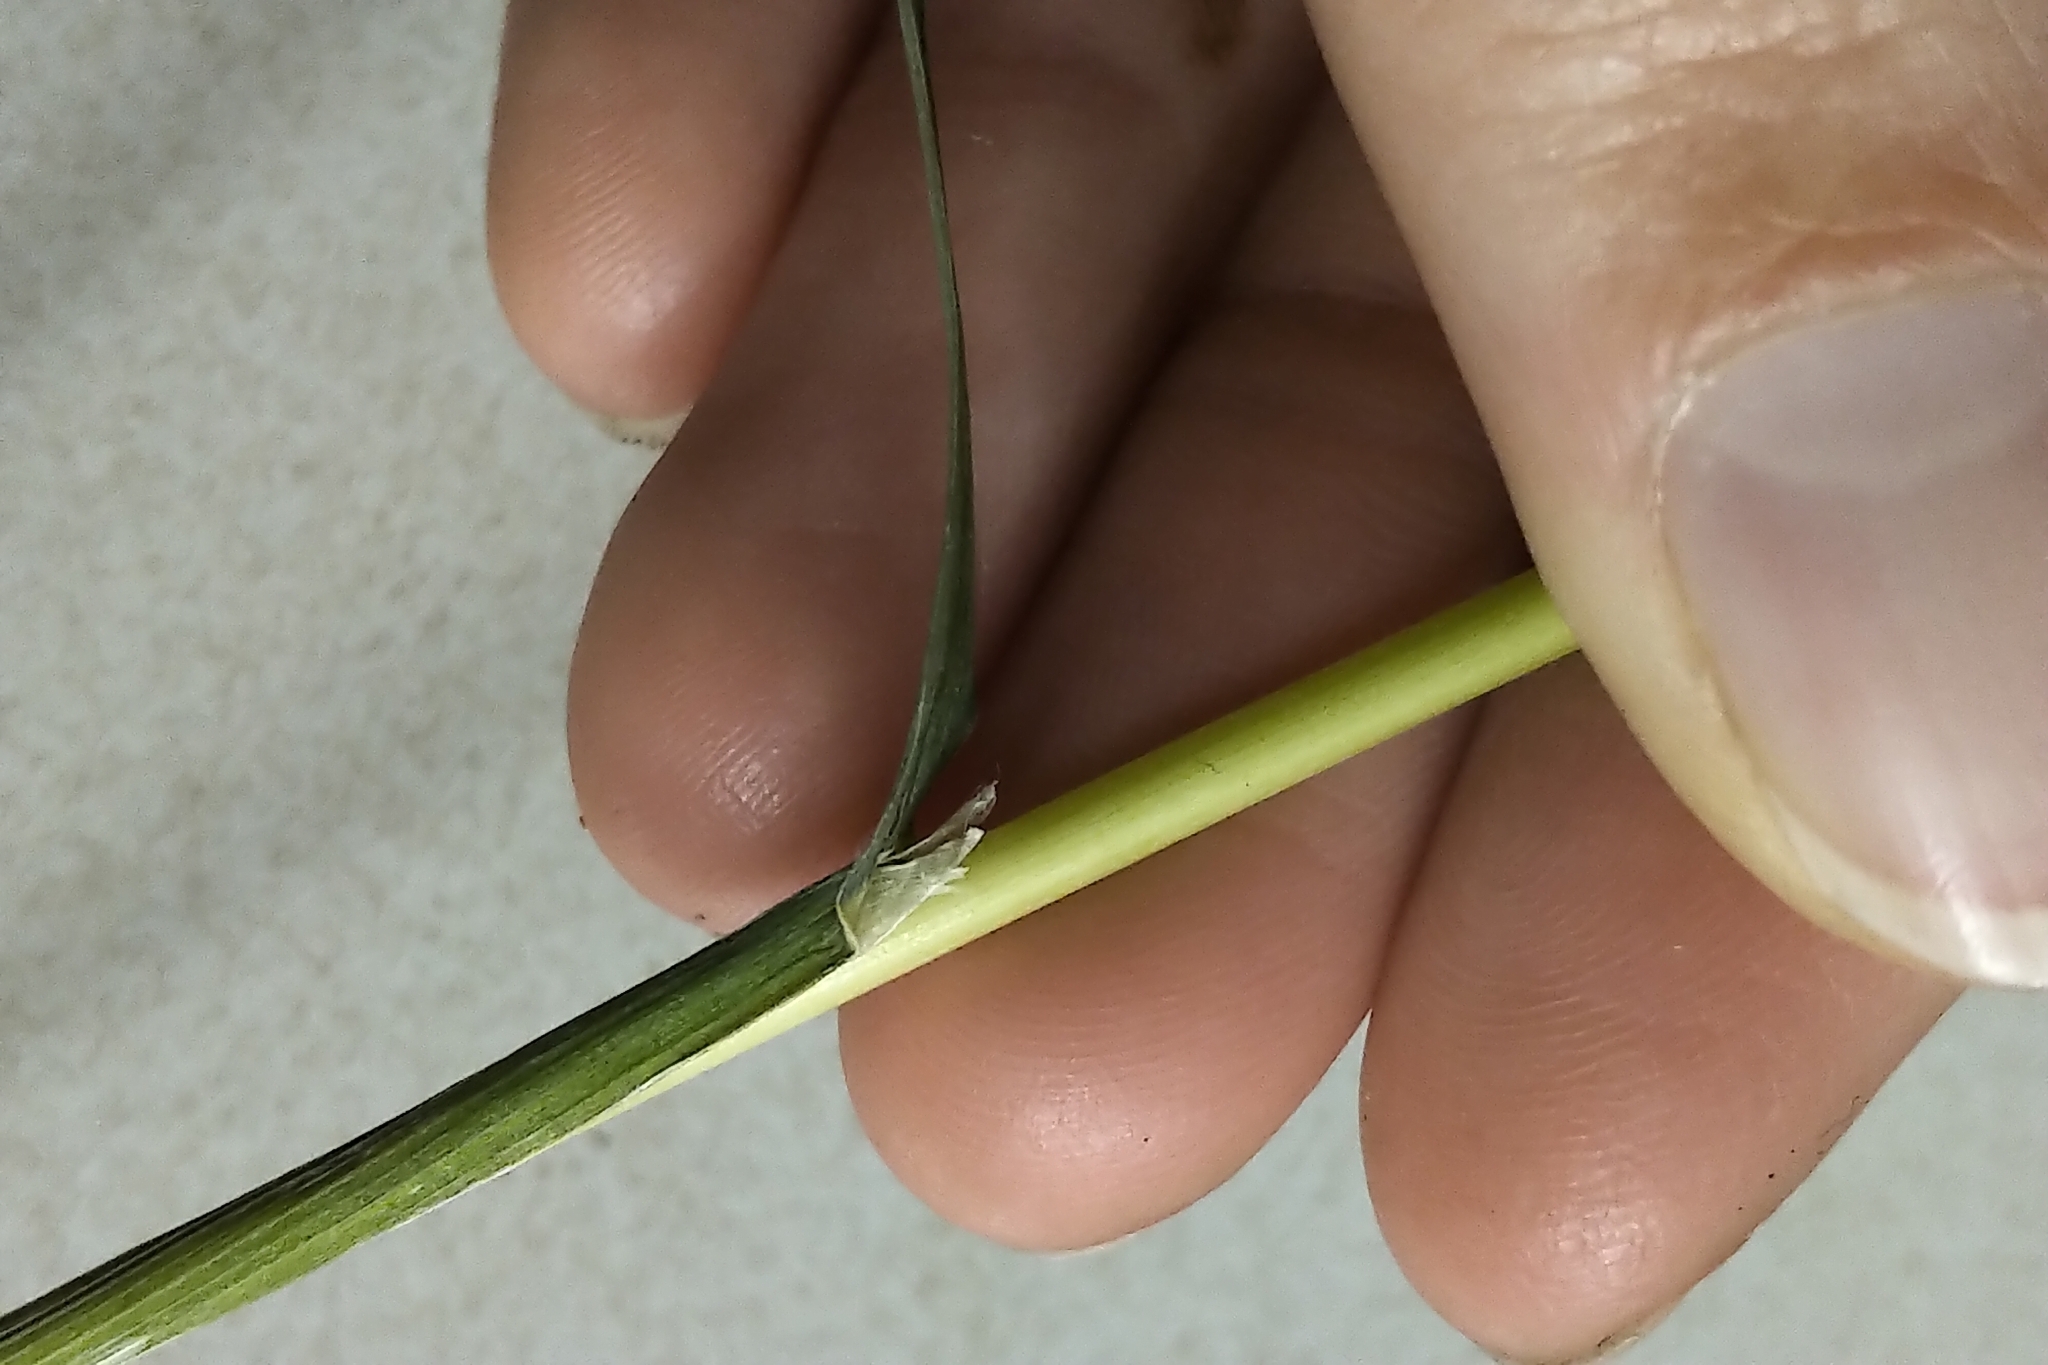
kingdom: Plantae
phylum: Tracheophyta
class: Liliopsida
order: Poales
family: Poaceae
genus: Arctagrostis
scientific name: Arctagrostis latifolia
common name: Arctic grass
